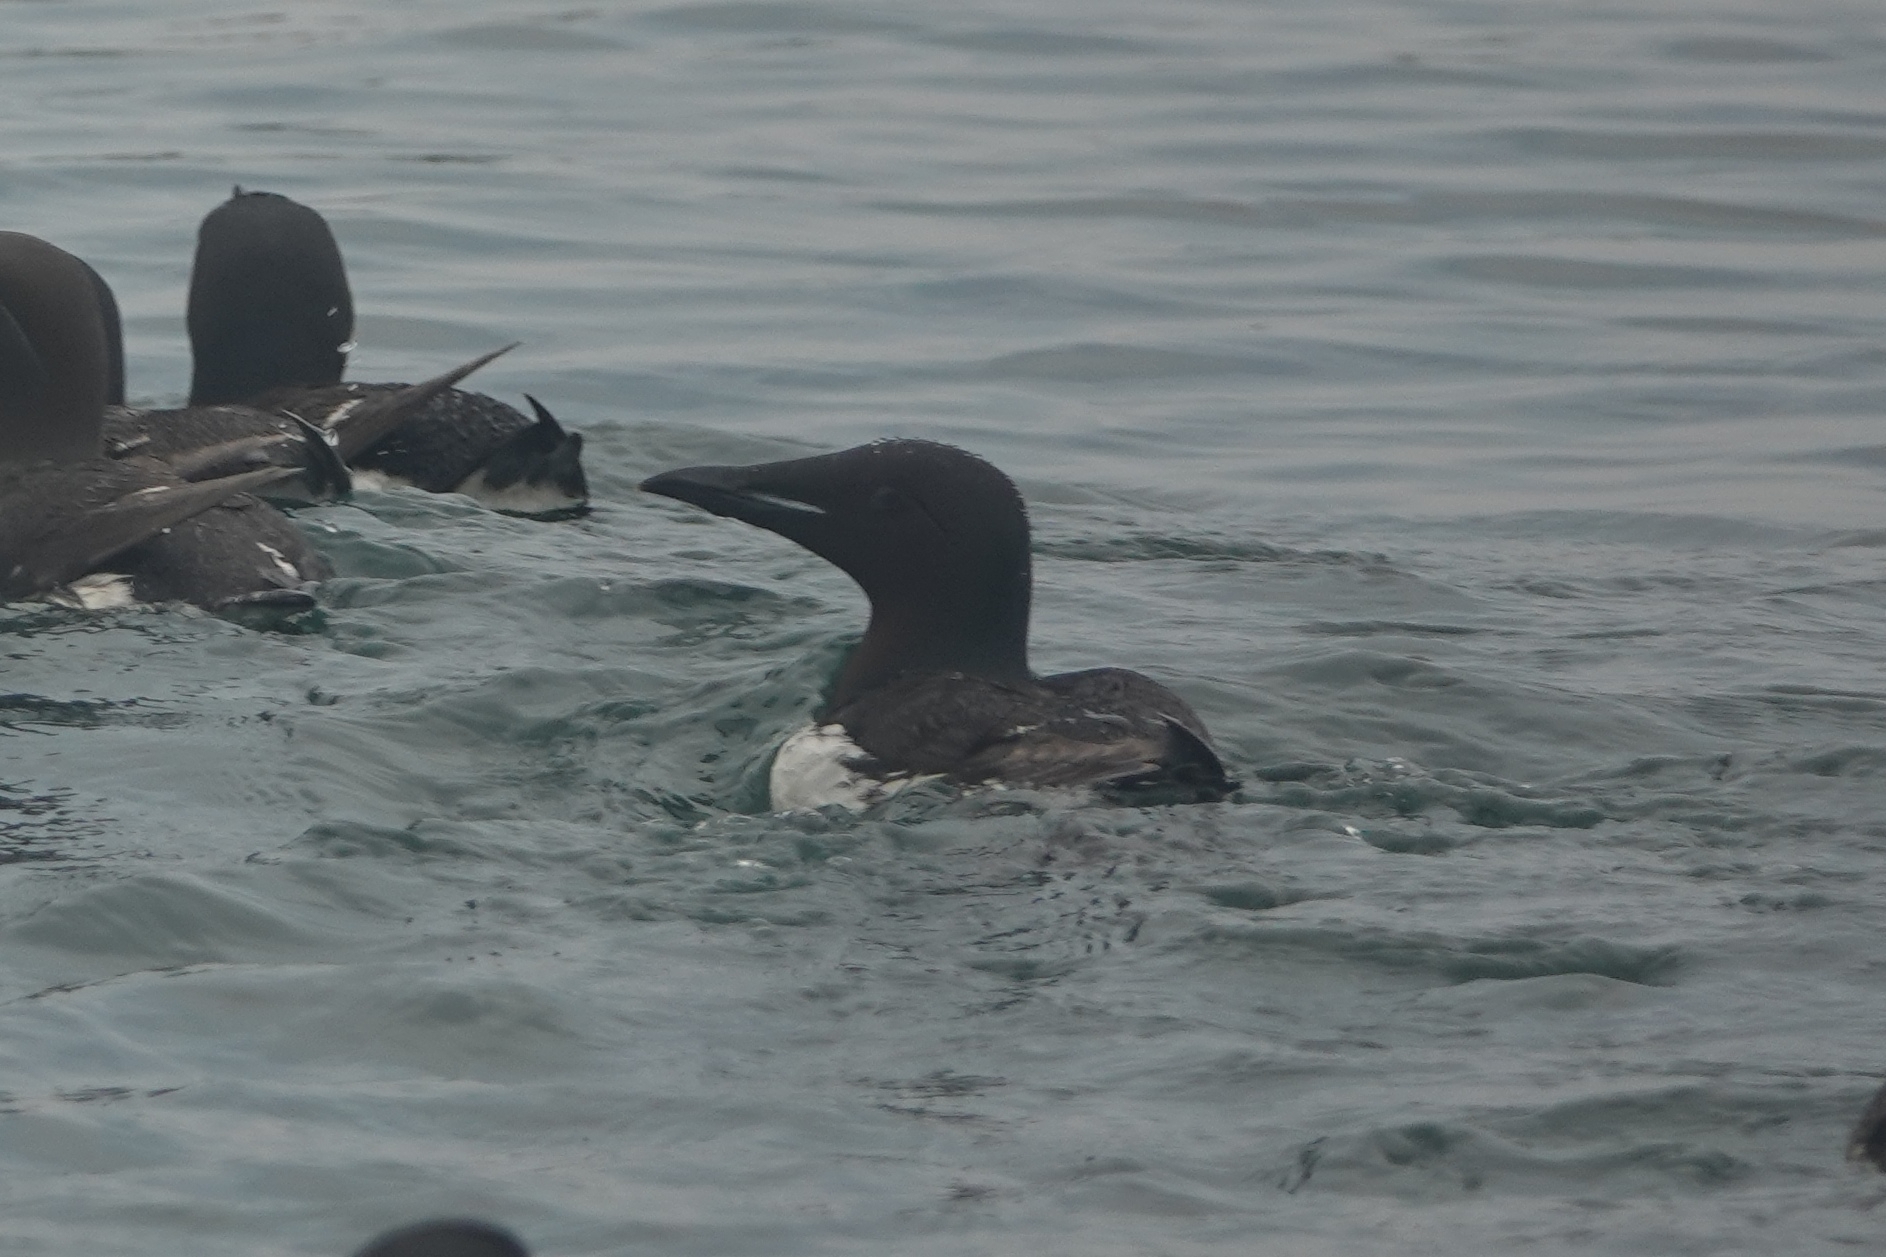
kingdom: Animalia
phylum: Chordata
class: Aves
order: Charadriiformes
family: Alcidae
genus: Uria
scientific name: Uria lomvia
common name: Thick-billed murre
